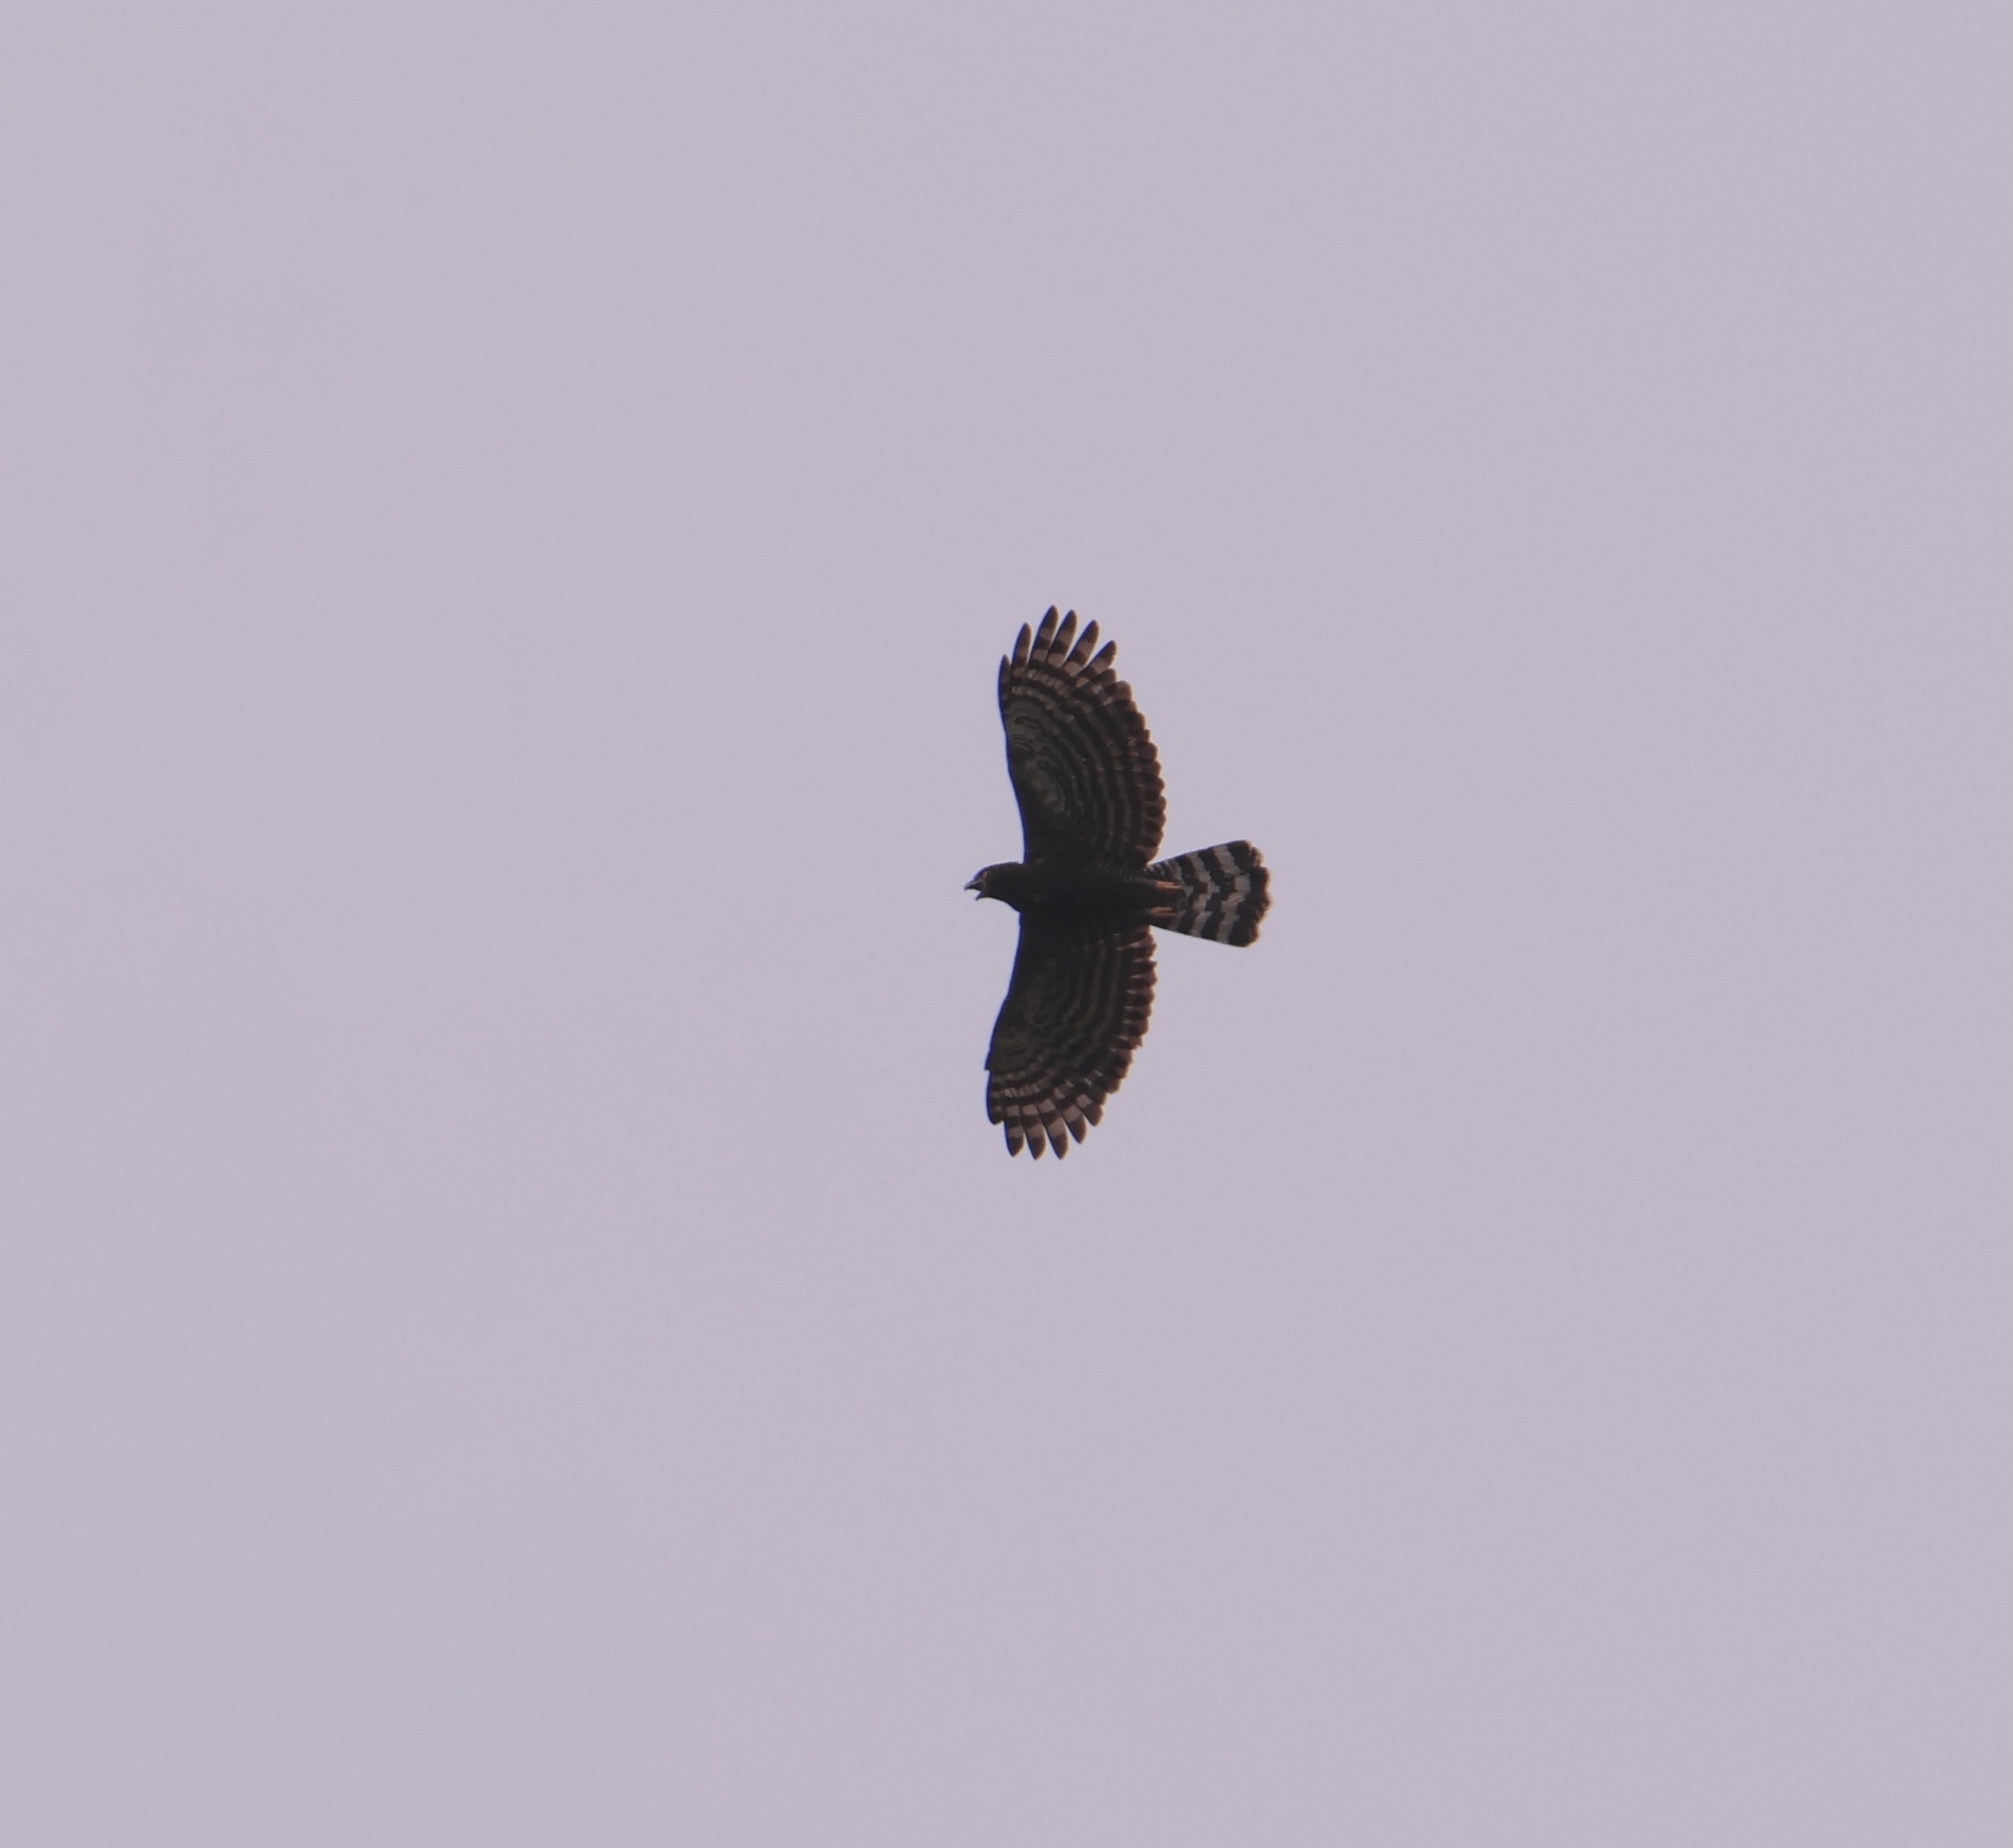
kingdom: Animalia
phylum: Chordata
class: Aves
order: Accipitriformes
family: Accipitridae
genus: Spizaetus
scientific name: Spizaetus tyrannus
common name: Black hawk-eagle
